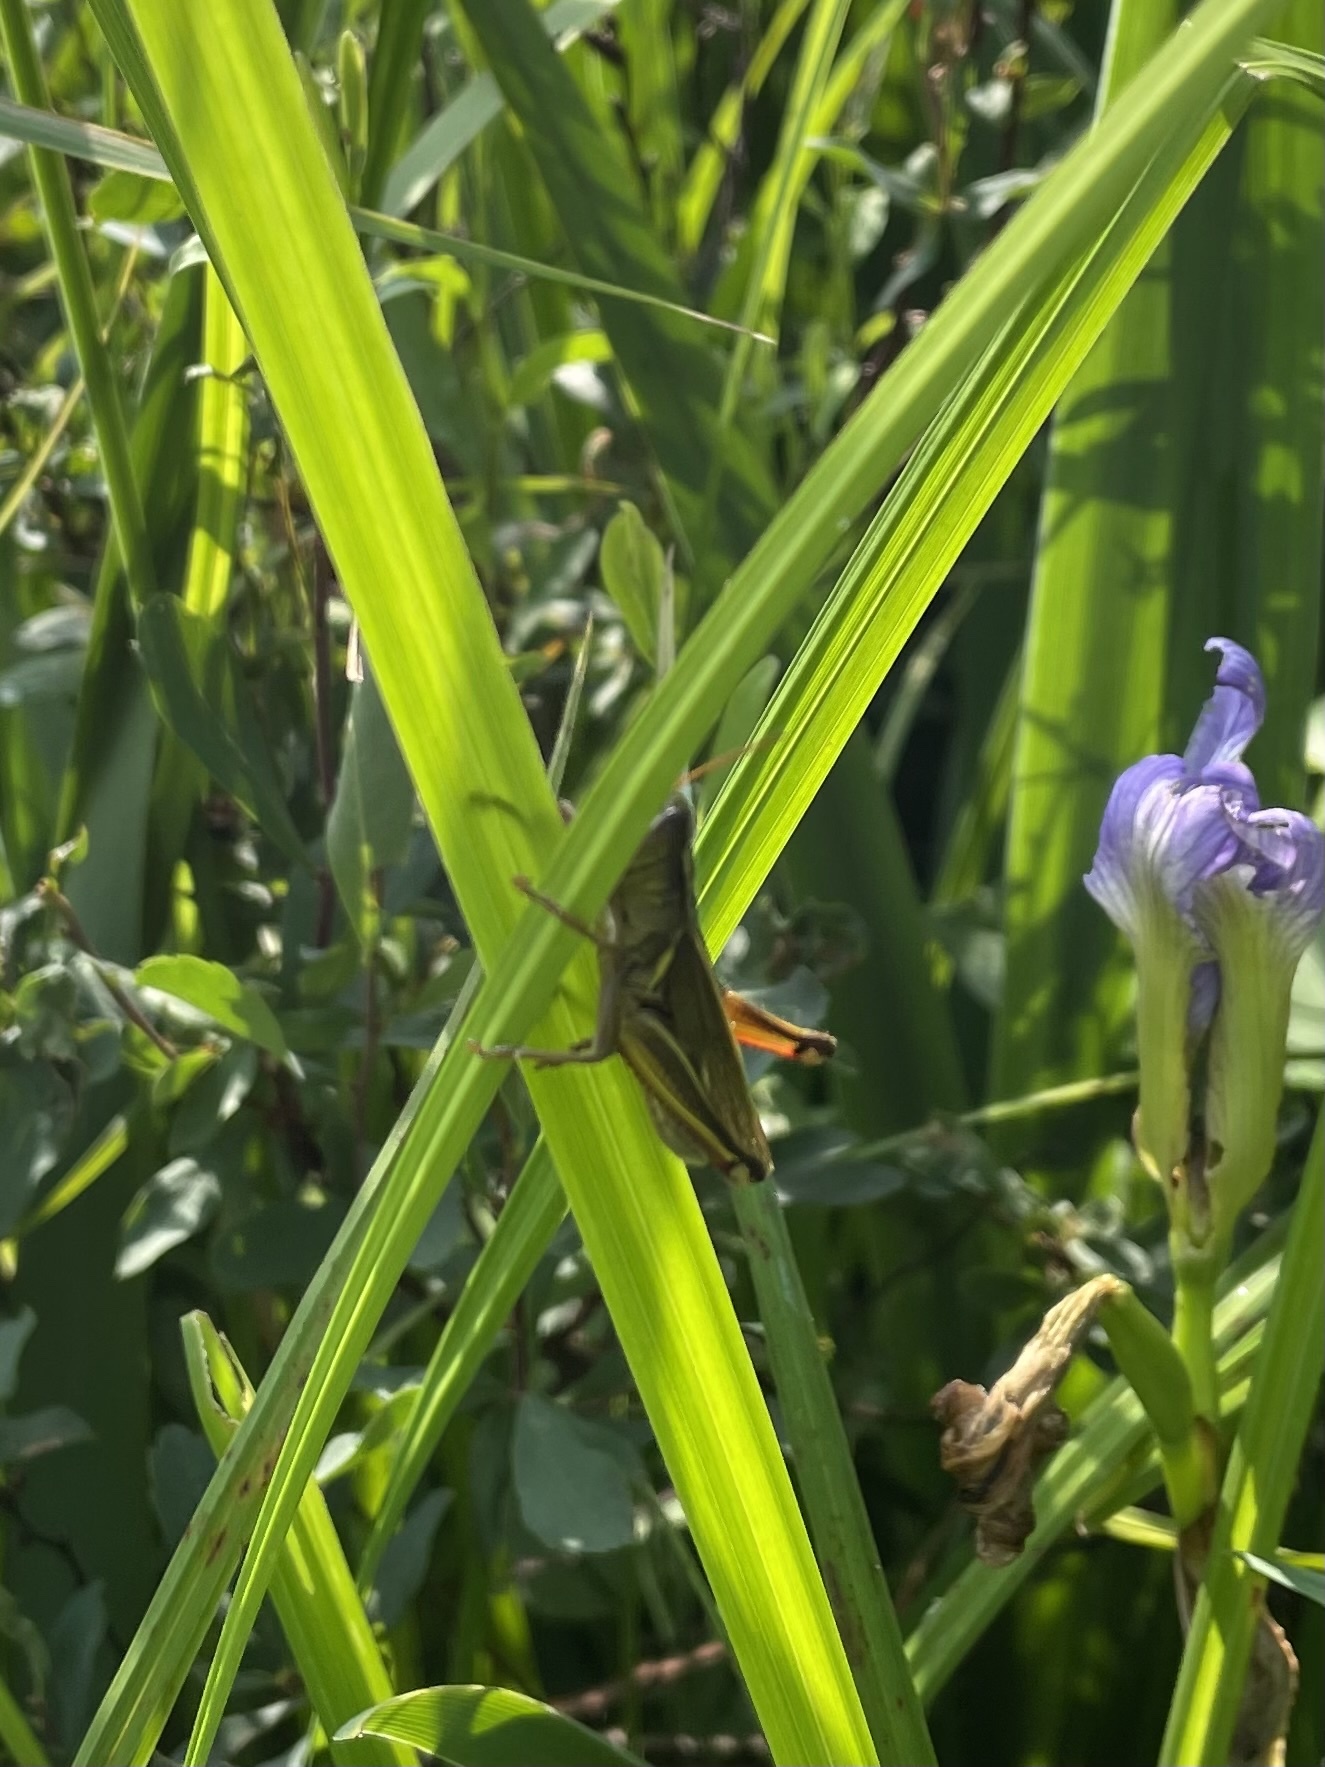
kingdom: Animalia
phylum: Arthropoda
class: Insecta
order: Orthoptera
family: Acrididae
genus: Melanoplus
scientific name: Melanoplus bivittatus
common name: Two-striped grasshopper
